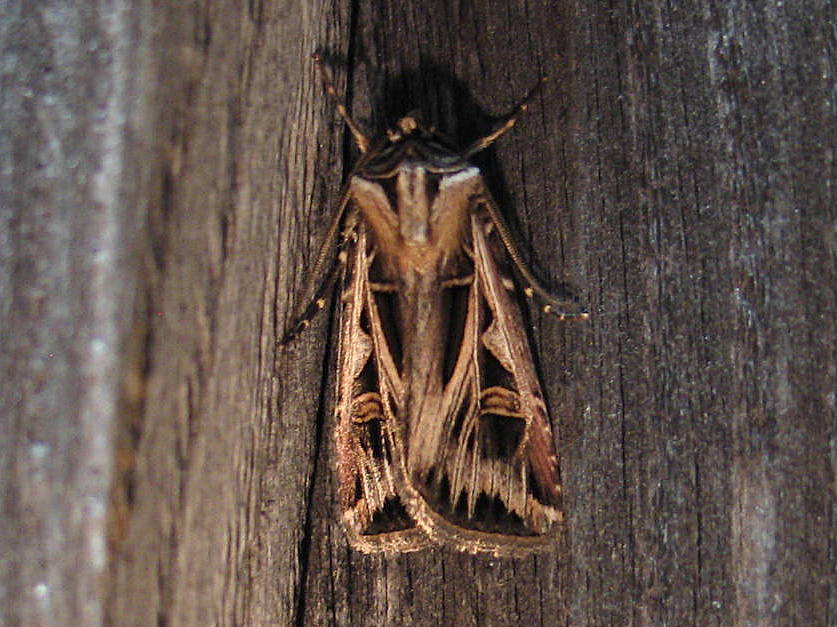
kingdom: Animalia
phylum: Arthropoda
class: Insecta
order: Lepidoptera
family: Noctuidae
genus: Feltia
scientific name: Feltia jaculifera
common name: Dingy cutworm moth
